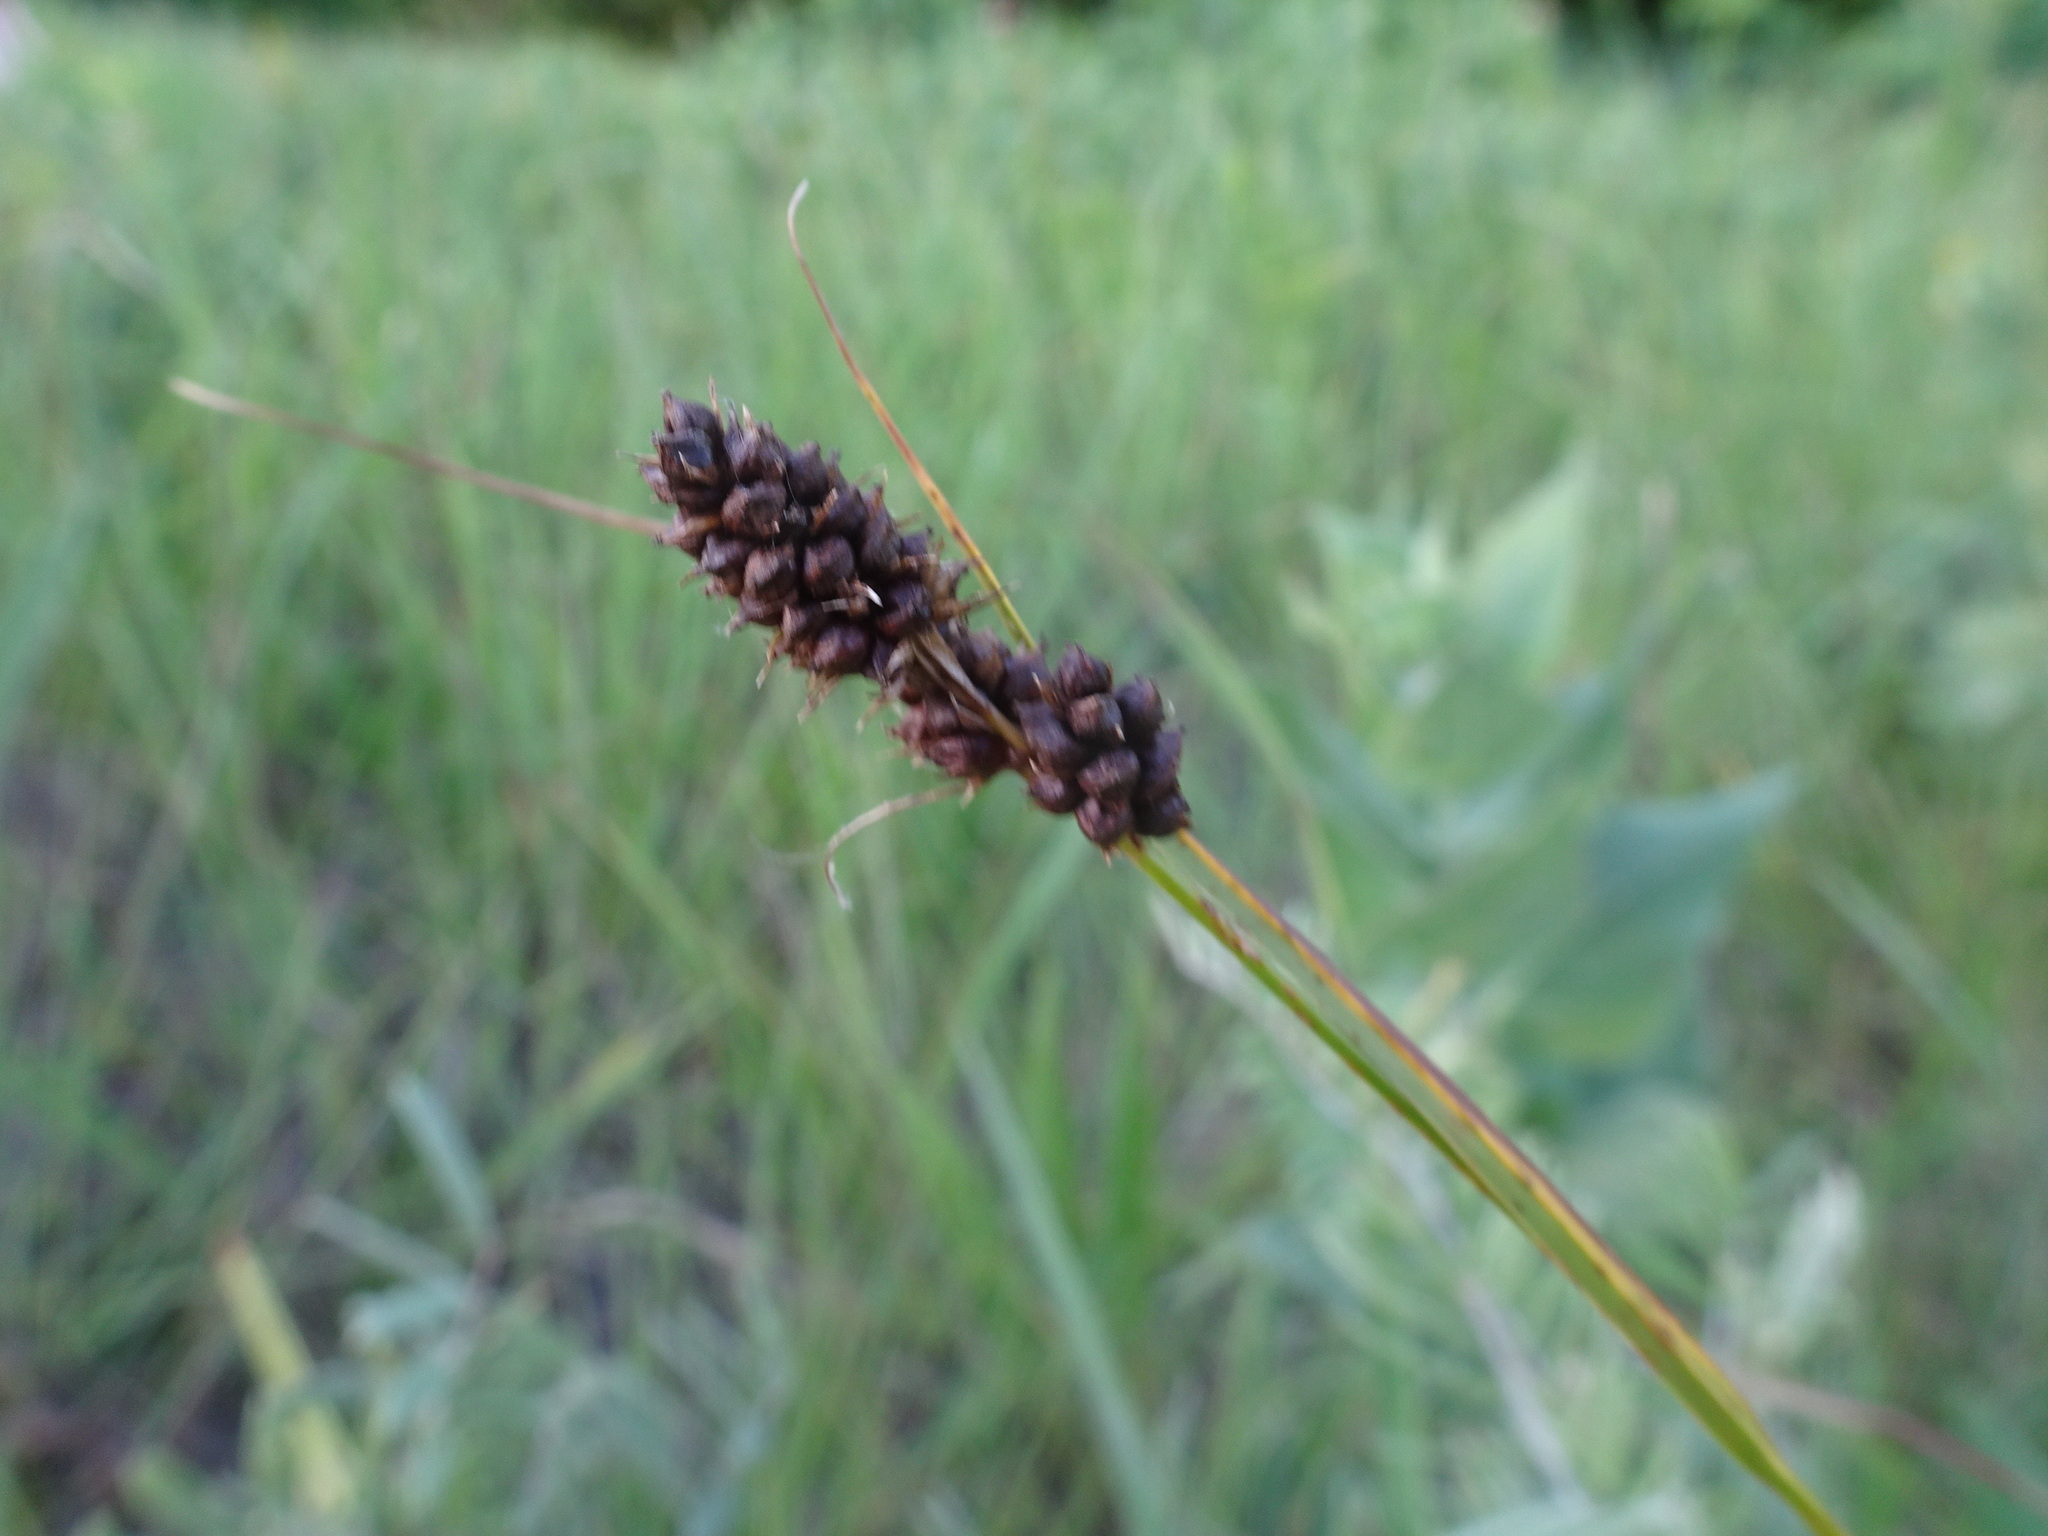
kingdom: Plantae
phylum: Tracheophyta
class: Liliopsida
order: Poales
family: Cyperaceae
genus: Carex
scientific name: Carex bushii
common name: Bush's sedge
